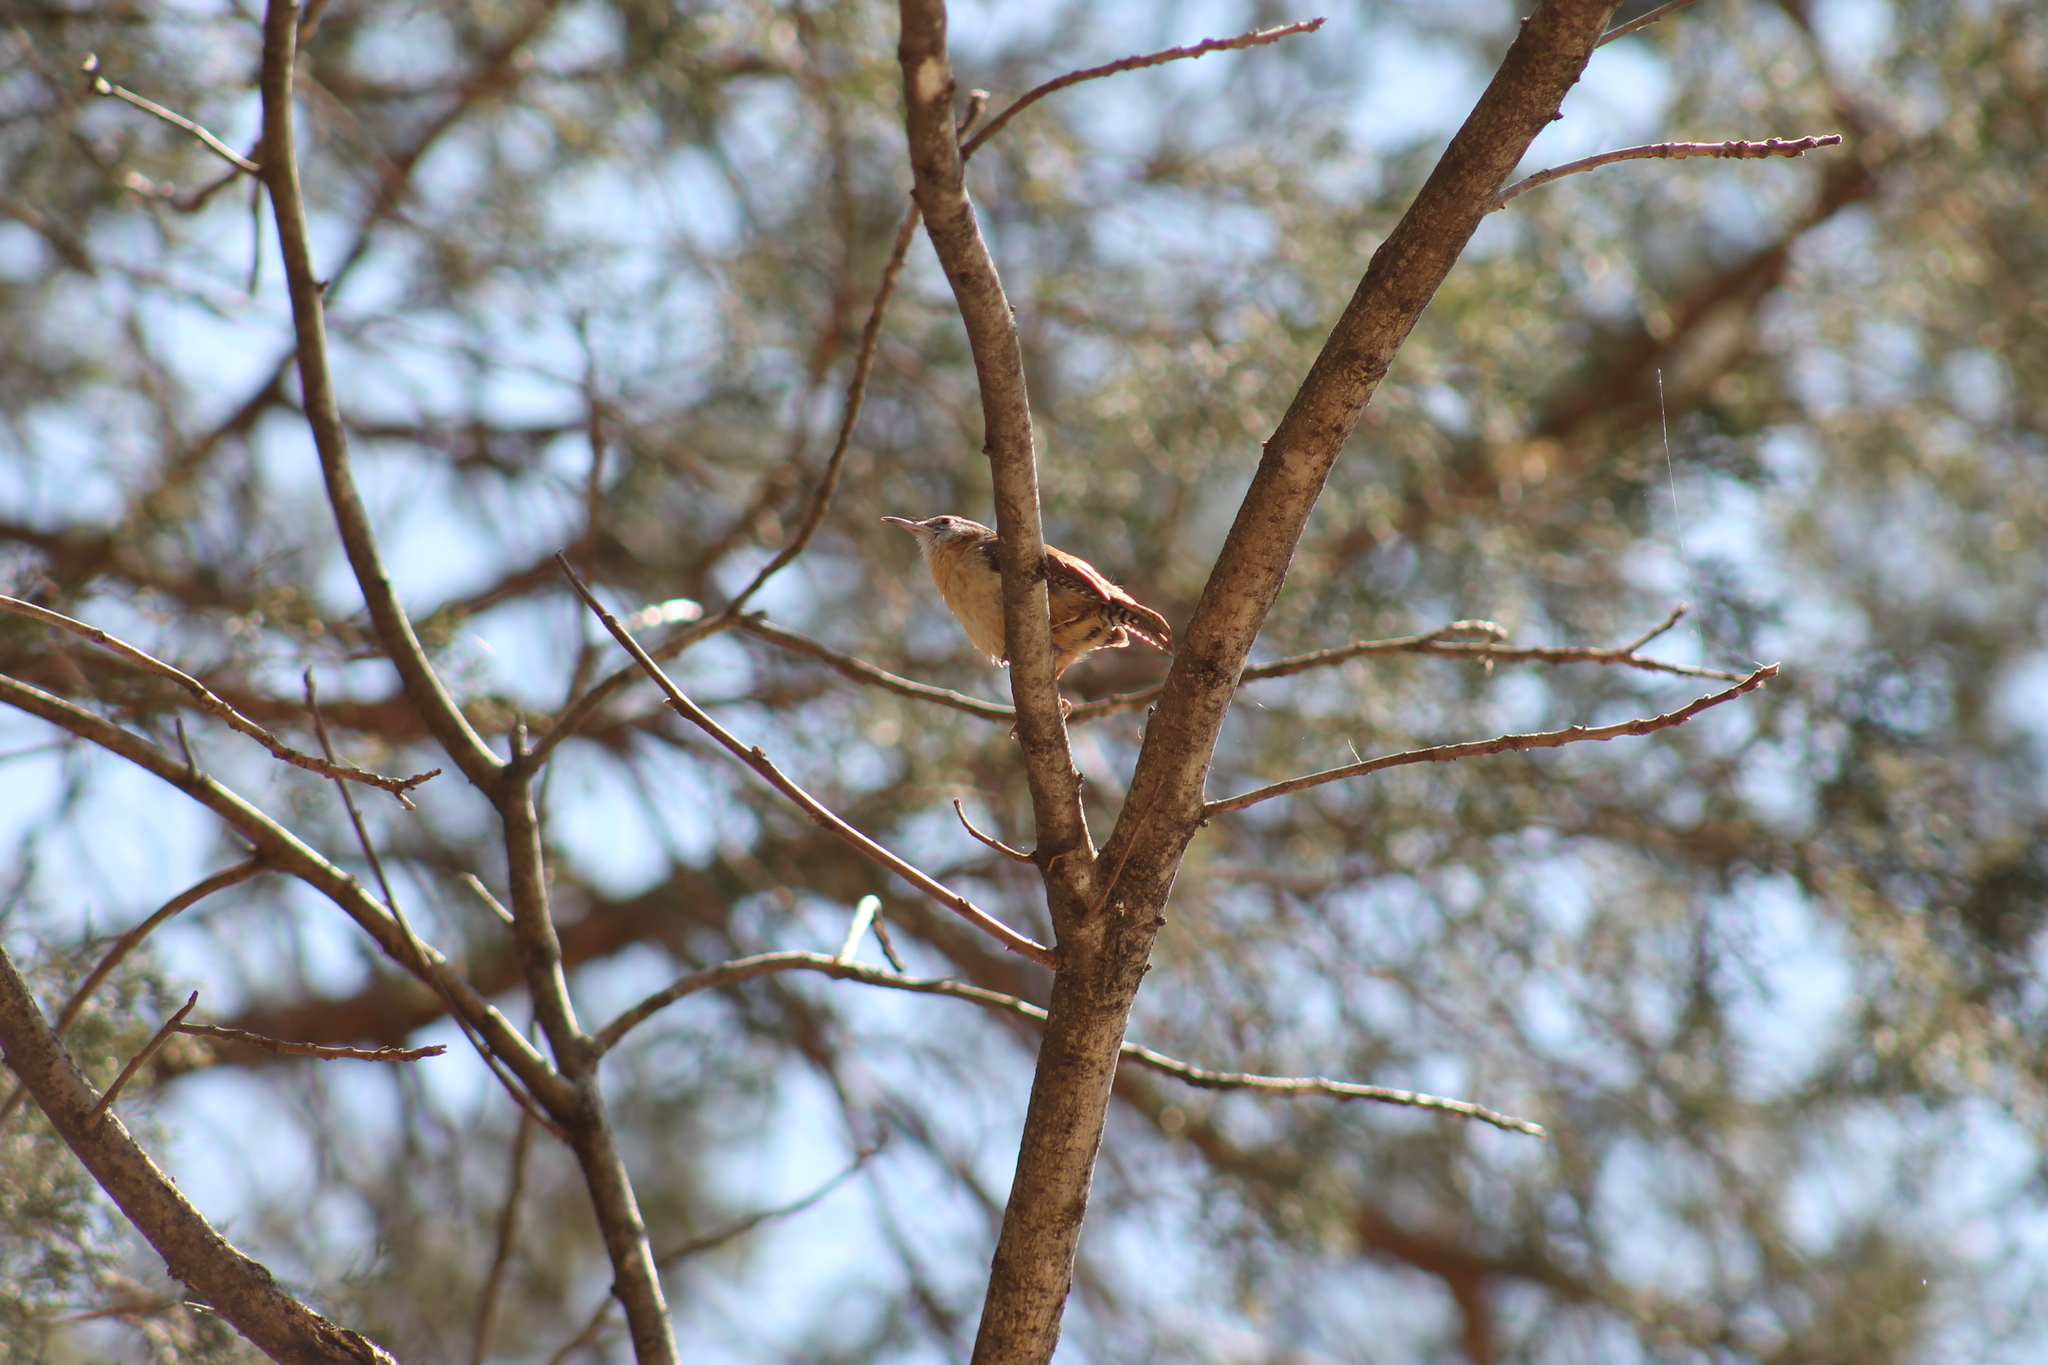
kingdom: Animalia
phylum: Chordata
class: Aves
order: Passeriformes
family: Troglodytidae
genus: Thryothorus
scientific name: Thryothorus ludovicianus
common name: Carolina wren
